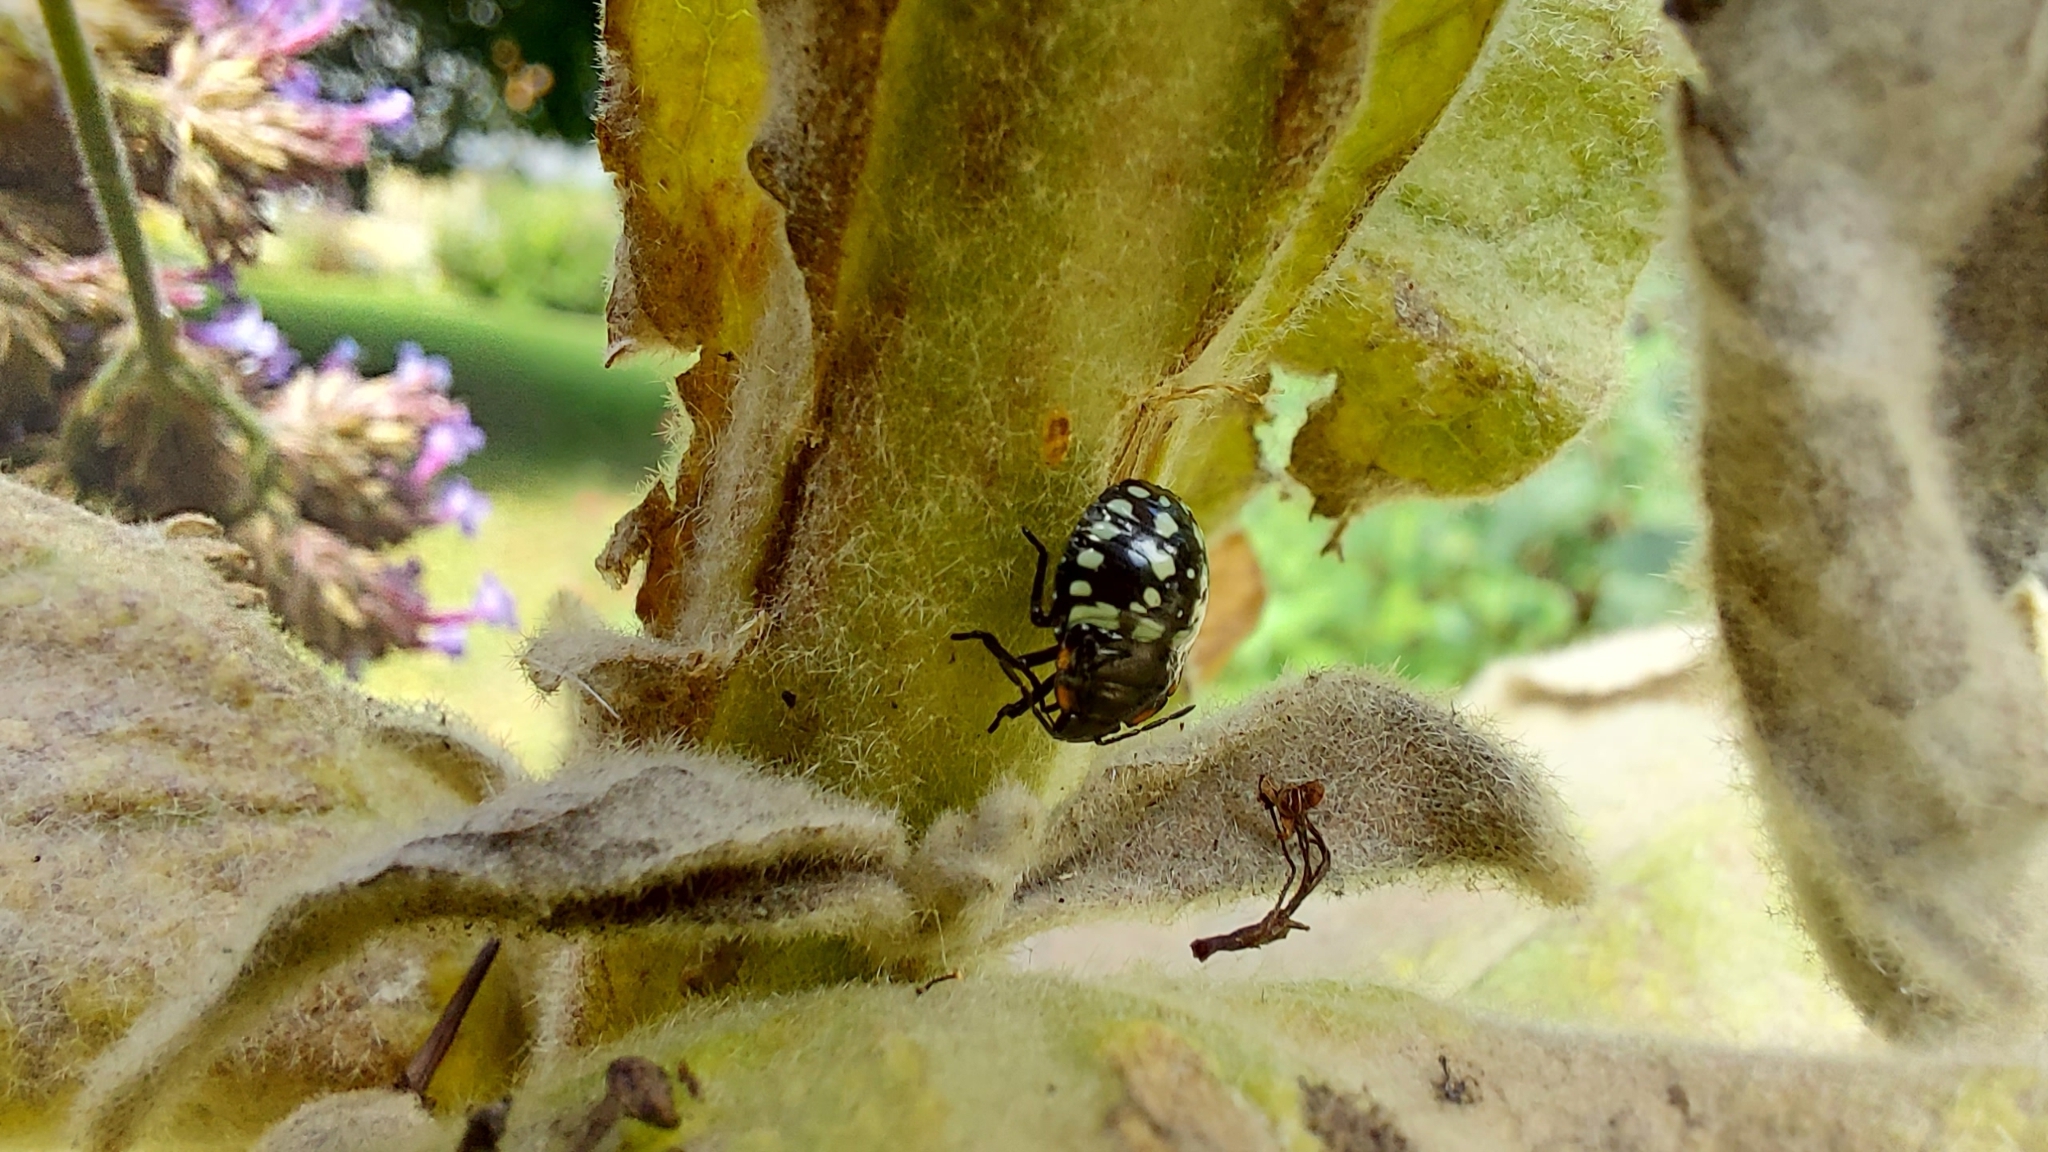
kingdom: Animalia
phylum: Arthropoda
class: Insecta
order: Hemiptera
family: Pentatomidae
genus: Nezara
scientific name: Nezara viridula
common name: Southern green stink bug
